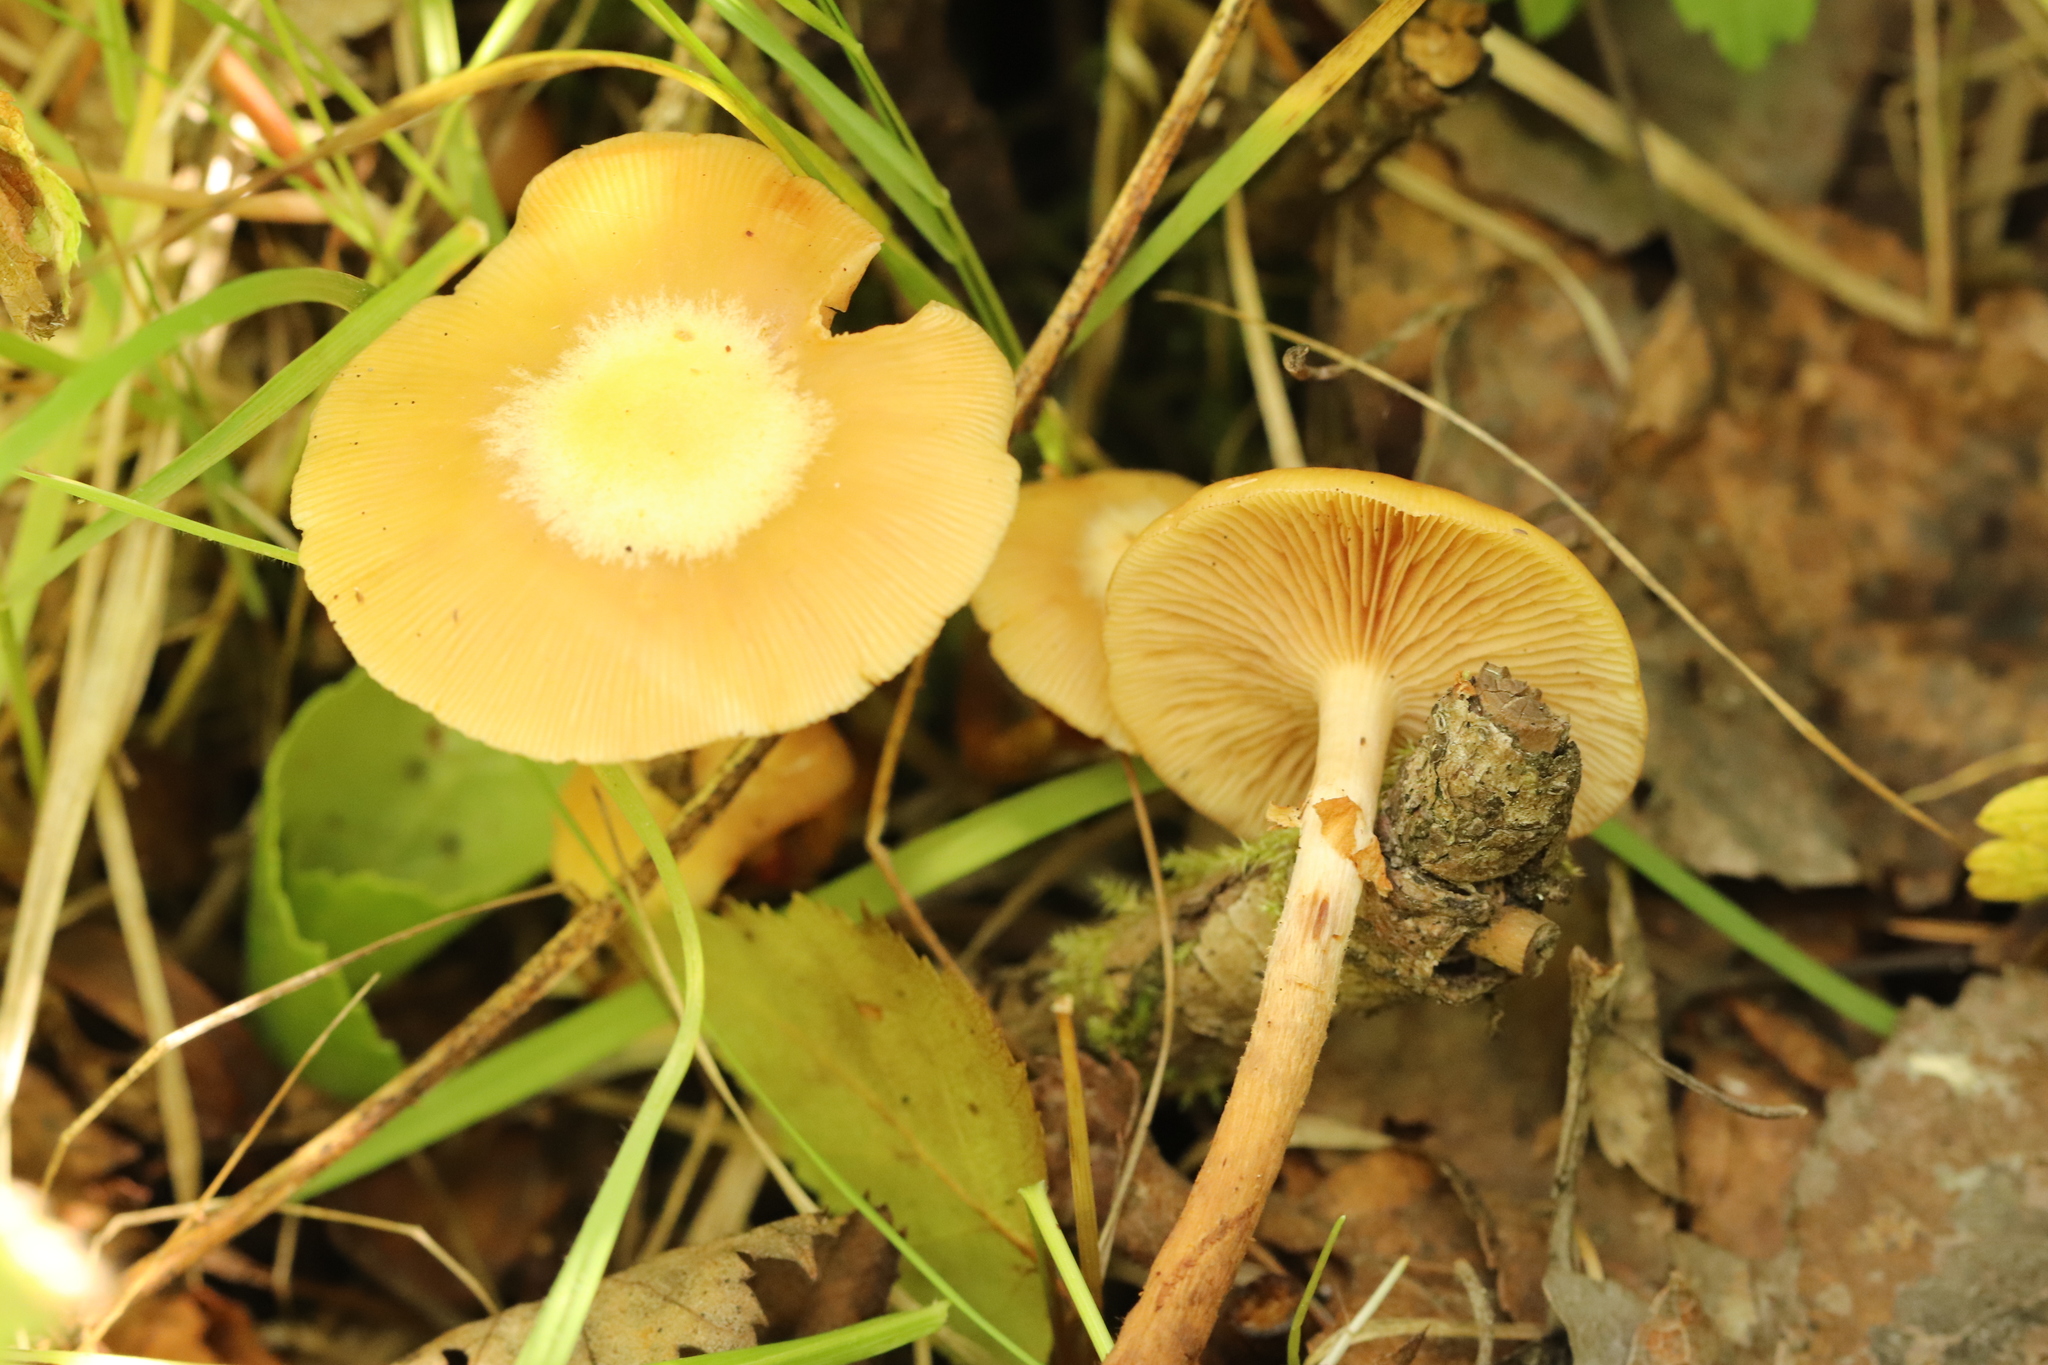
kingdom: Fungi
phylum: Basidiomycota
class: Agaricomycetes
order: Agaricales
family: Strophariaceae
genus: Kuehneromyces
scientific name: Kuehneromyces mutabilis
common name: Sheathed woodtuft
